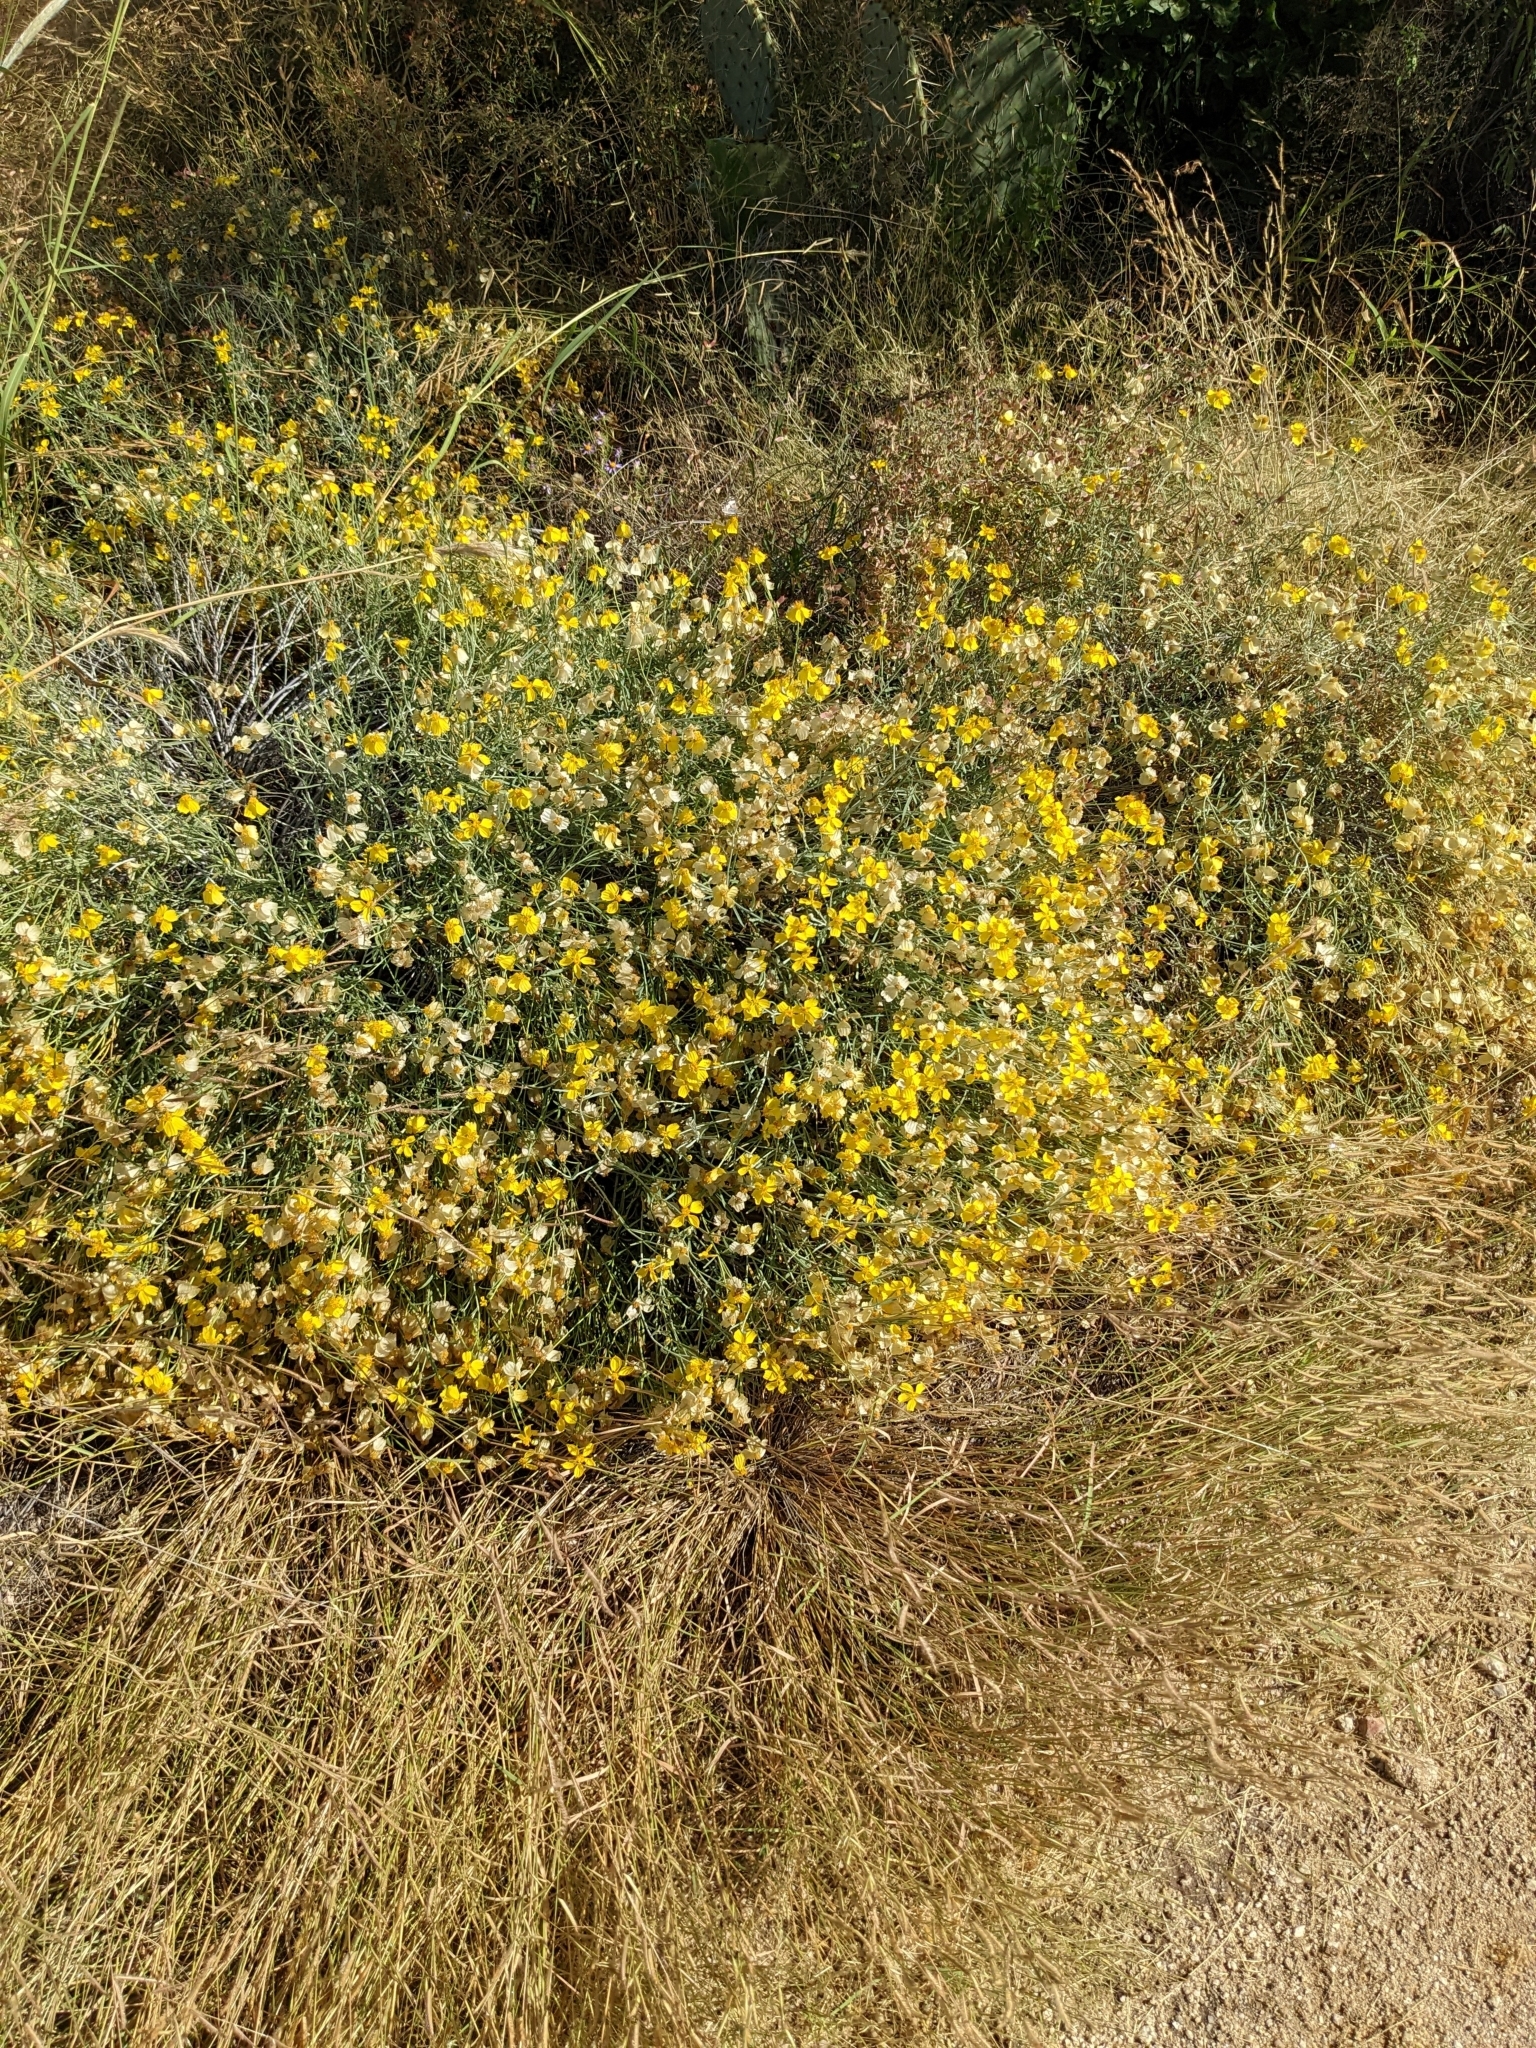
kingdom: Plantae
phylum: Tracheophyta
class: Magnoliopsida
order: Asterales
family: Asteraceae
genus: Psilostrophe
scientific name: Psilostrophe cooperi
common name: White-stem paper-flower
